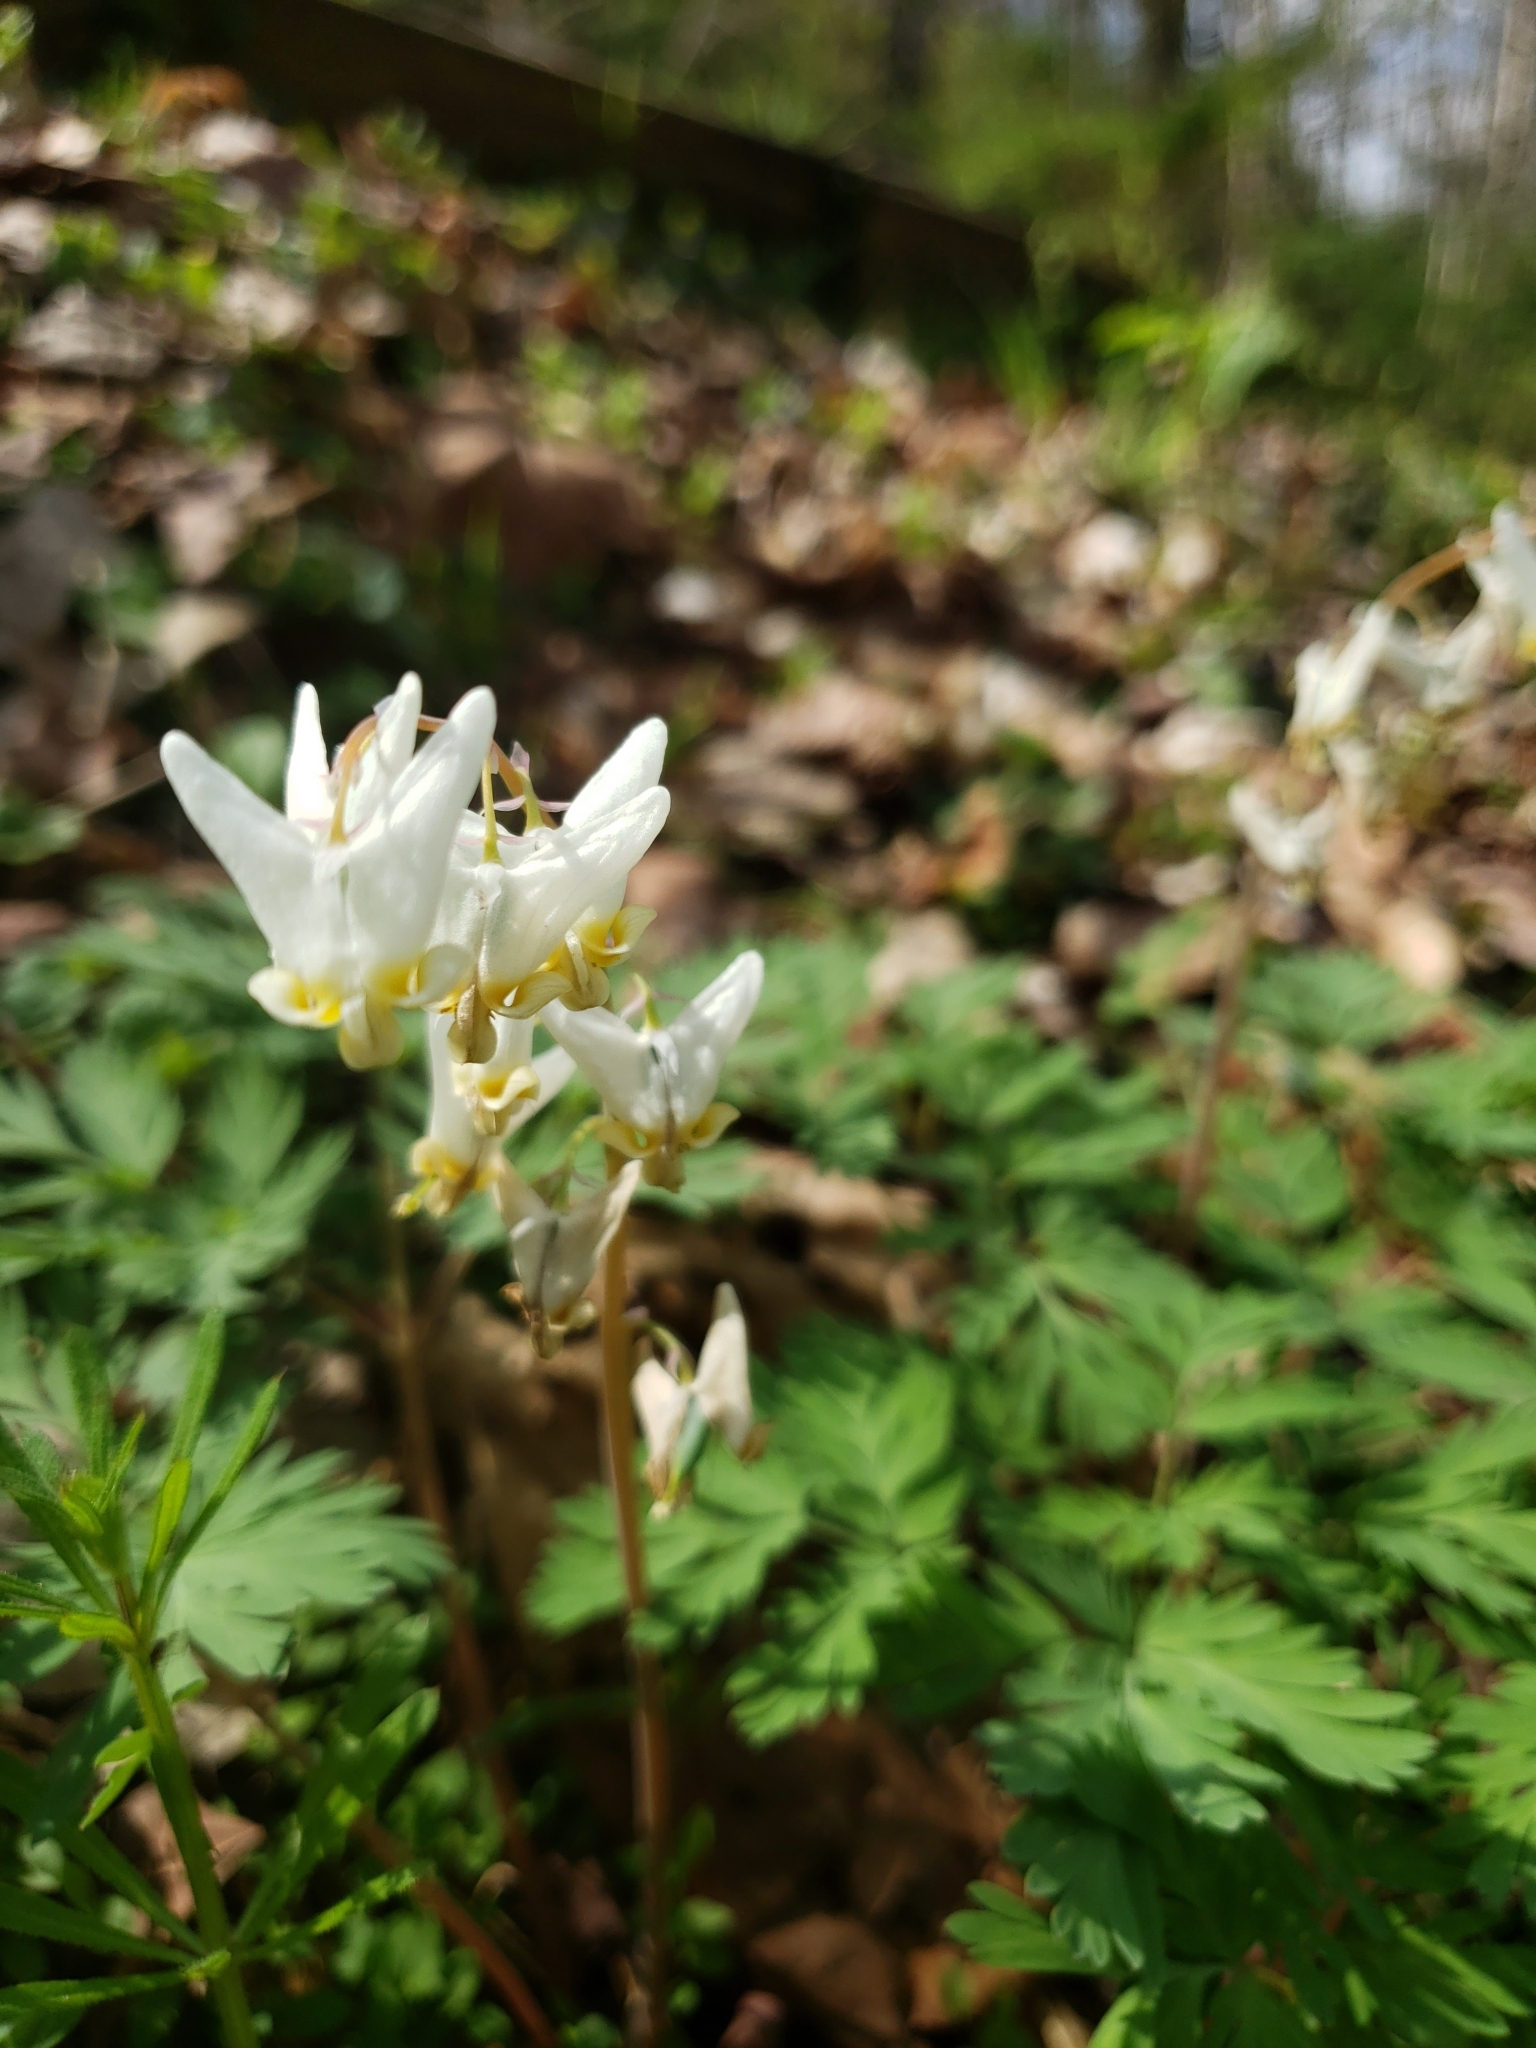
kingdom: Plantae
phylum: Tracheophyta
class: Magnoliopsida
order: Ranunculales
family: Papaveraceae
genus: Dicentra
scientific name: Dicentra cucullaria
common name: Dutchman's breeches
